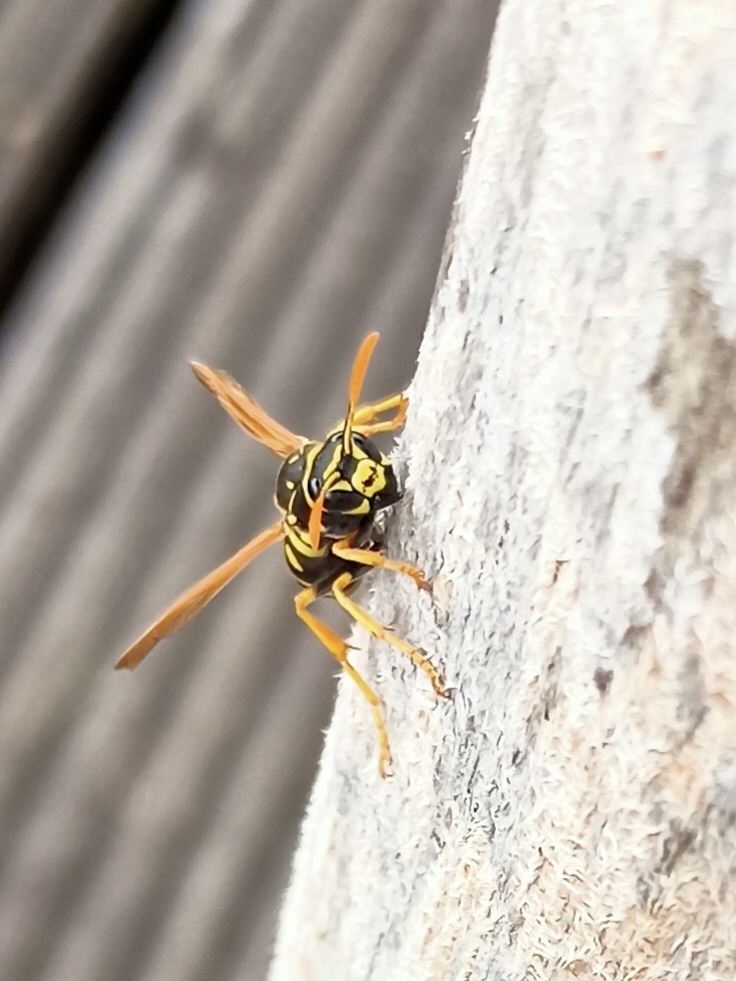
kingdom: Animalia
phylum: Arthropoda
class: Insecta
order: Hymenoptera
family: Eumenidae
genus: Polistes
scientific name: Polistes dominula
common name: Paper wasp
